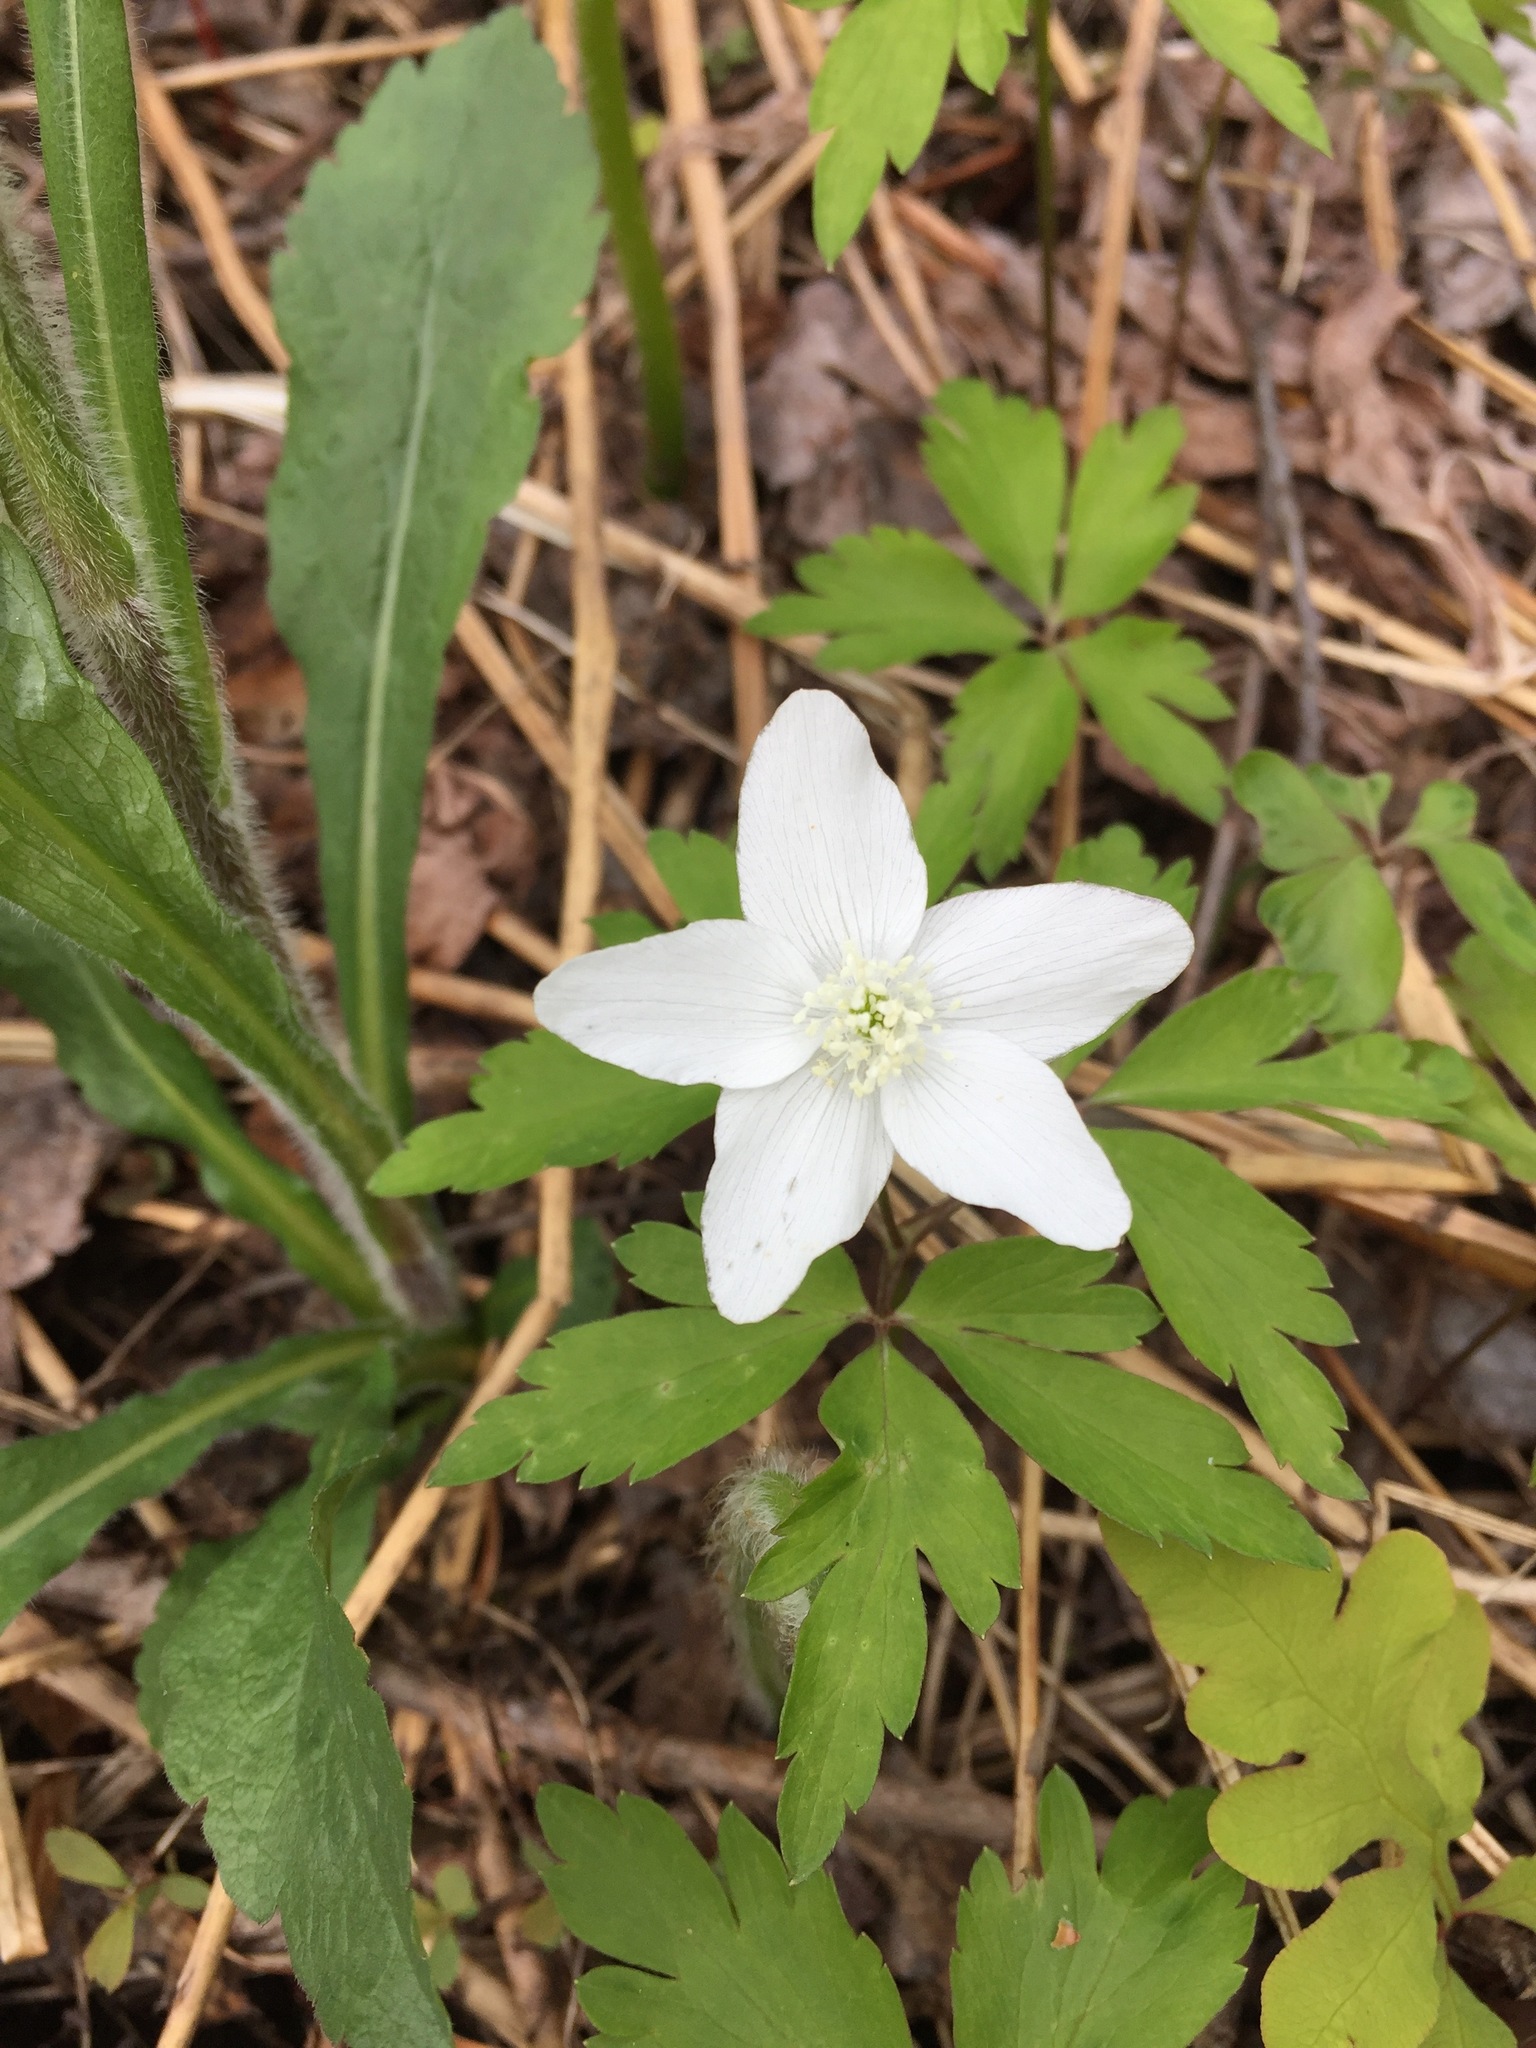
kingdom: Plantae
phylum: Tracheophyta
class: Magnoliopsida
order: Ranunculales
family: Ranunculaceae
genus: Anemone
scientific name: Anemone quinquefolia
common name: Wood anemone
